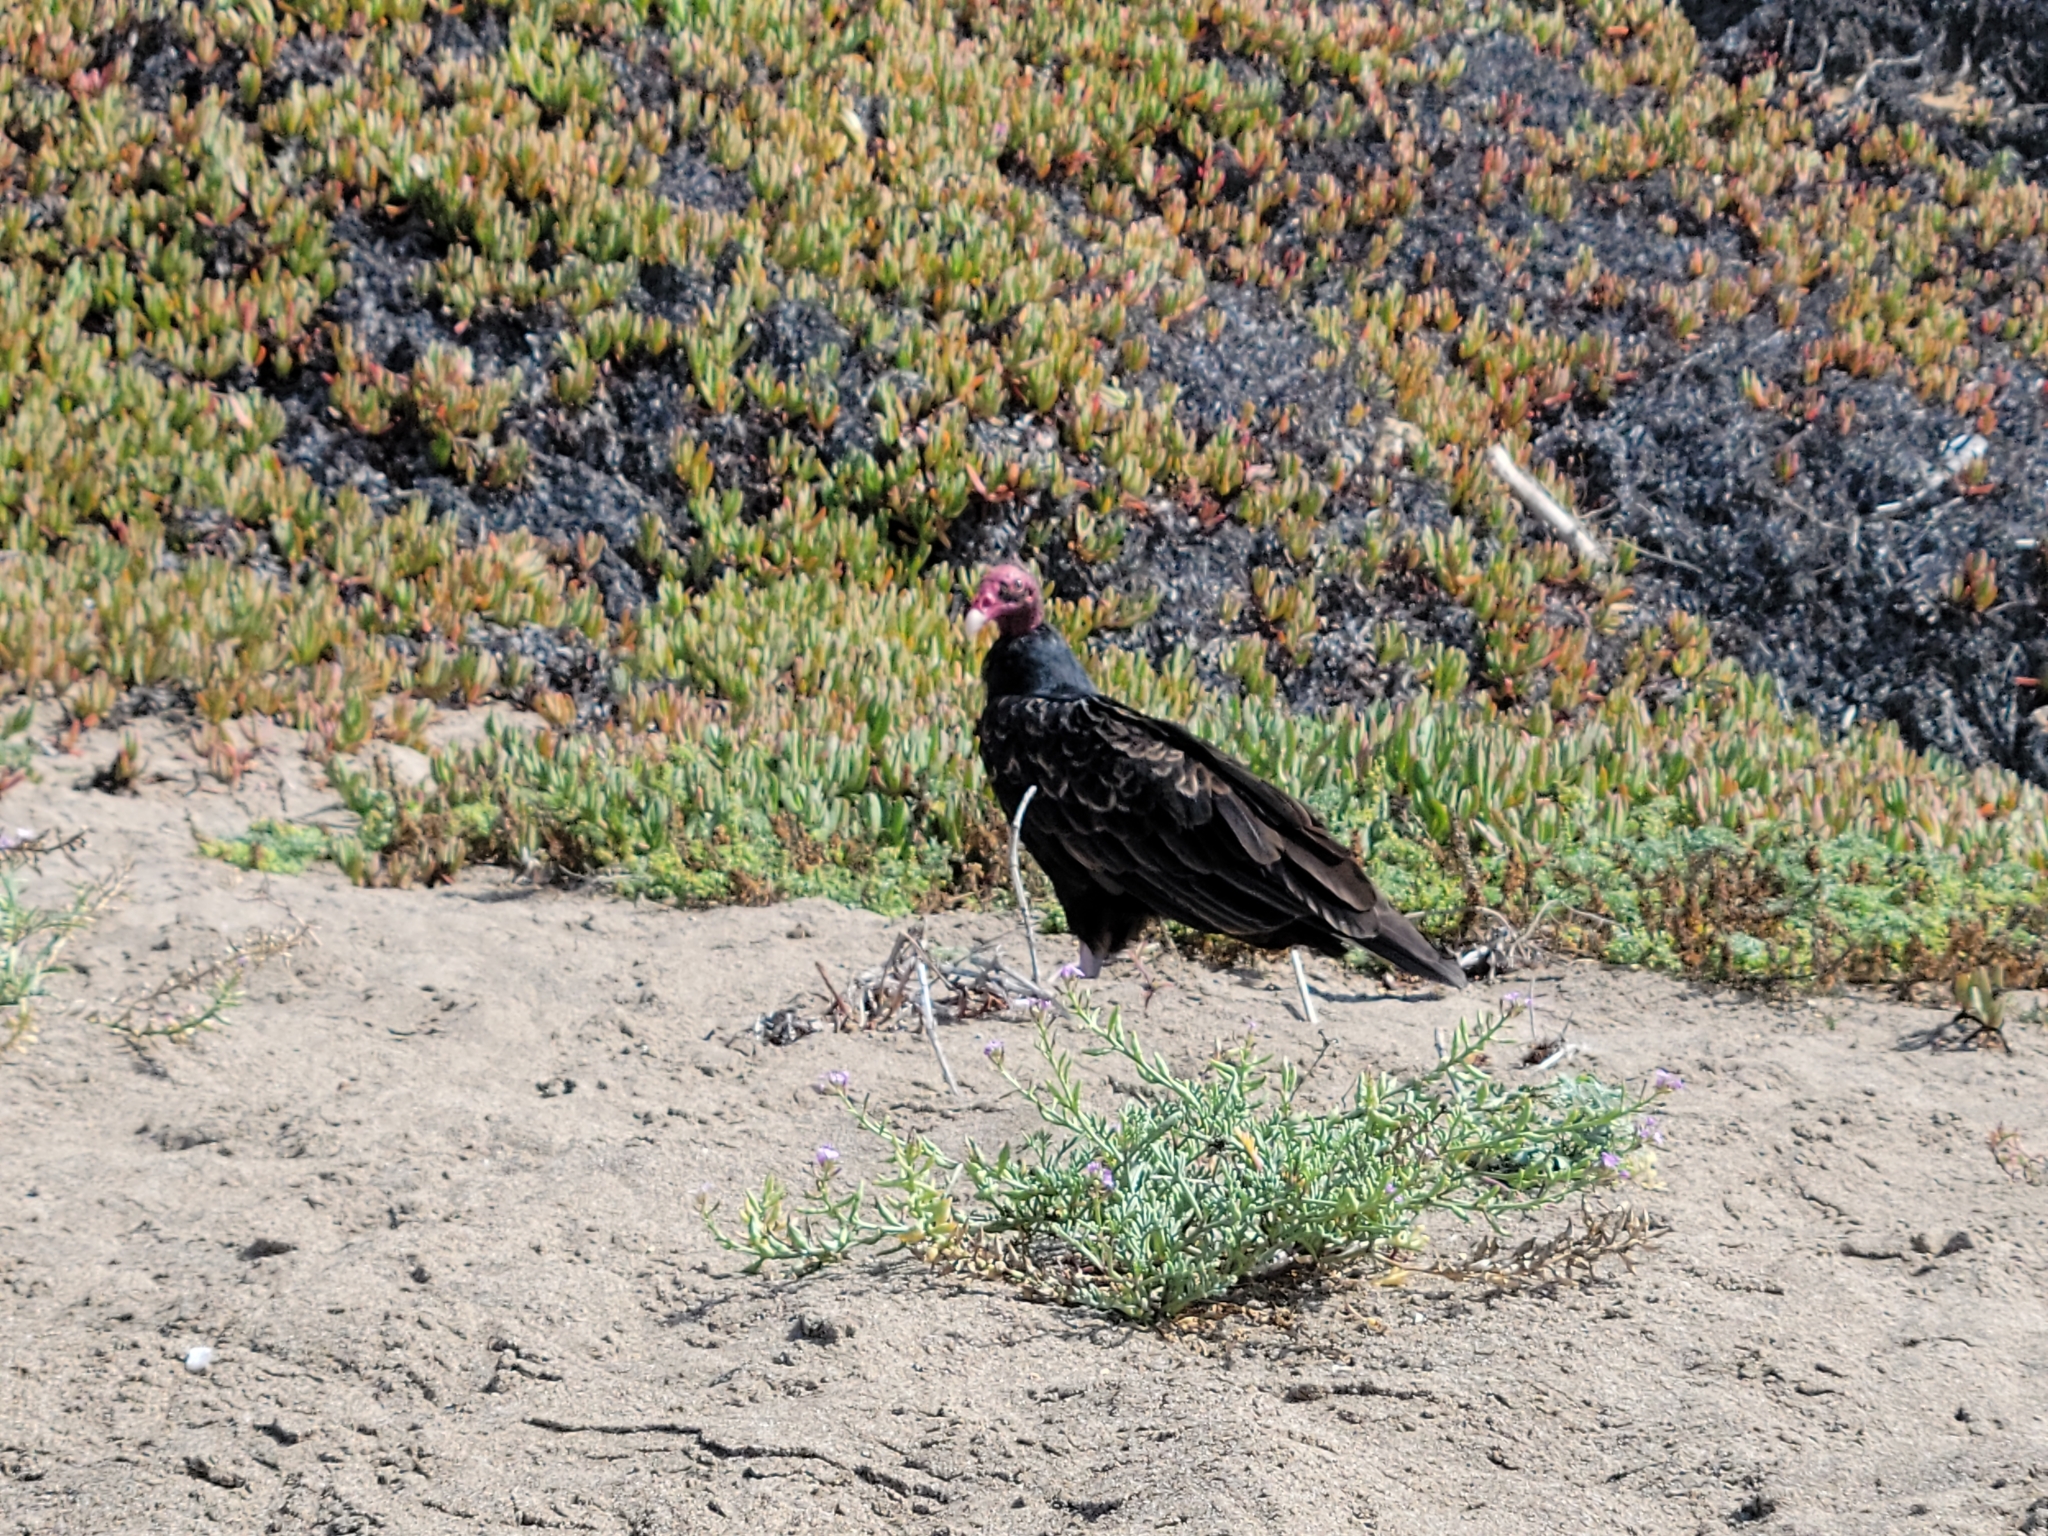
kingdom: Animalia
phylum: Chordata
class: Aves
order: Accipitriformes
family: Cathartidae
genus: Cathartes
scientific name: Cathartes aura
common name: Turkey vulture
